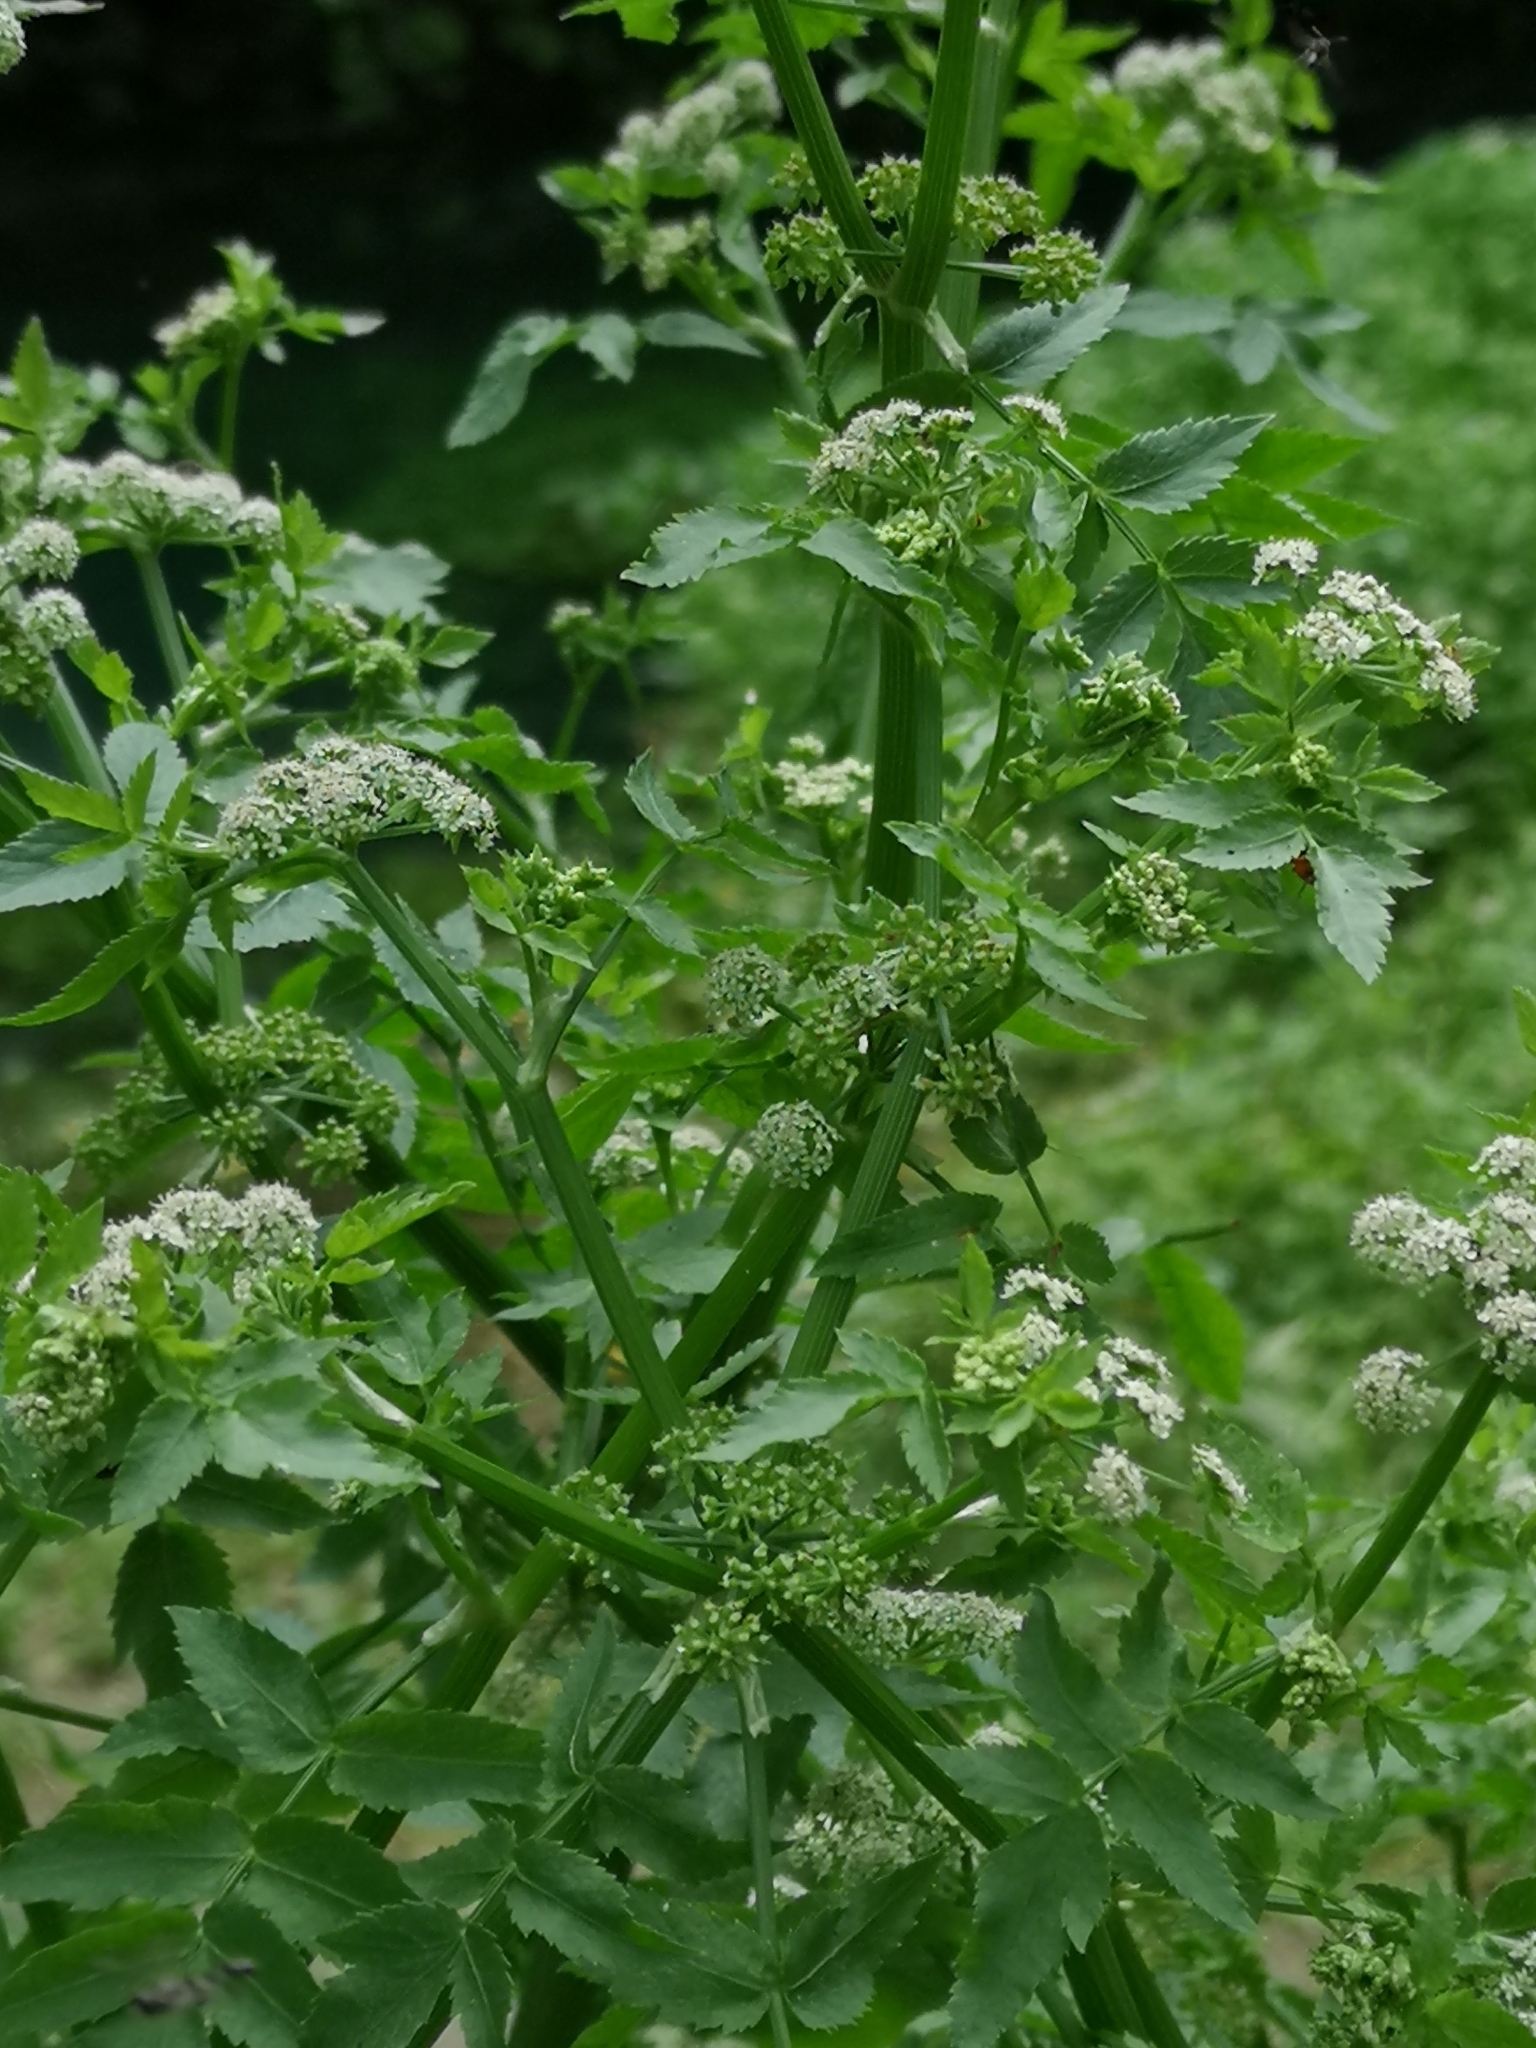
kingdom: Plantae
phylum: Tracheophyta
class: Magnoliopsida
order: Apiales
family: Apiaceae
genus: Helosciadium
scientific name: Helosciadium nodiflorum
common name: Fool's-watercress
